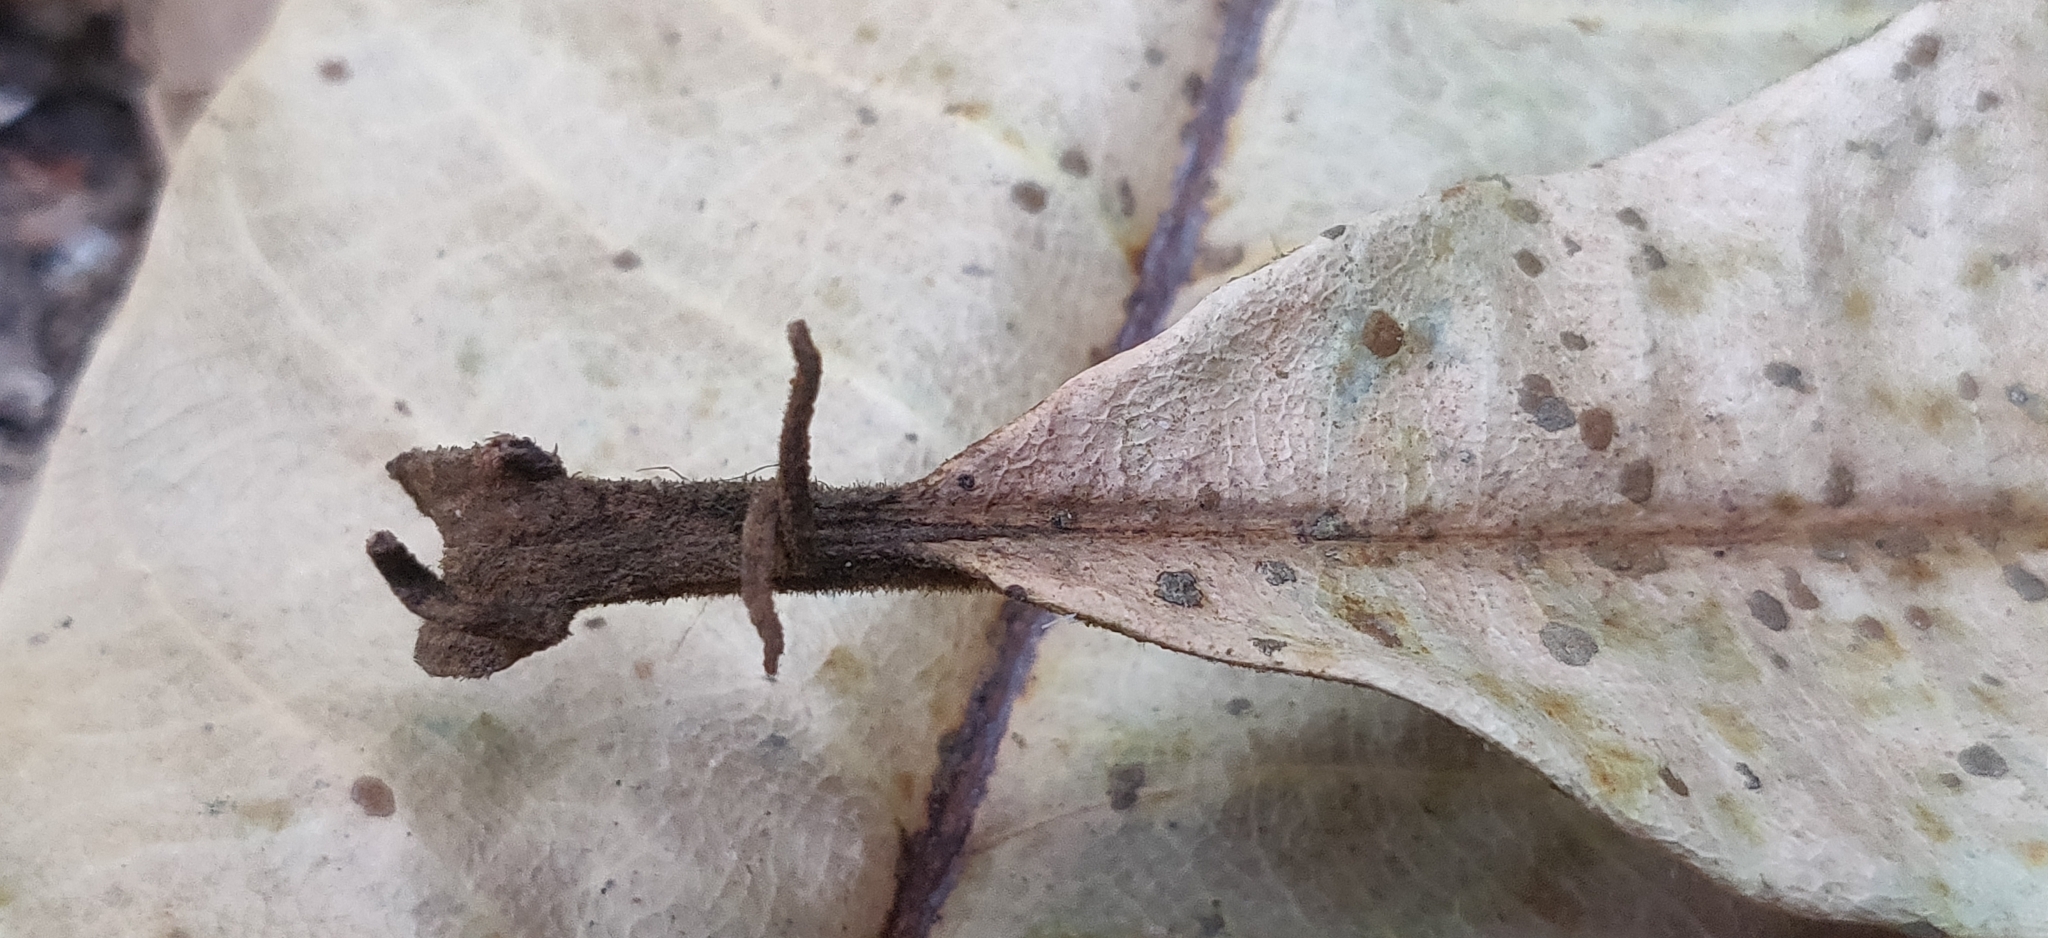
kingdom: Plantae
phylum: Tracheophyta
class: Magnoliopsida
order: Sapindales
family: Anacardiaceae
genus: Holigarna
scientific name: Holigarna grahamii
